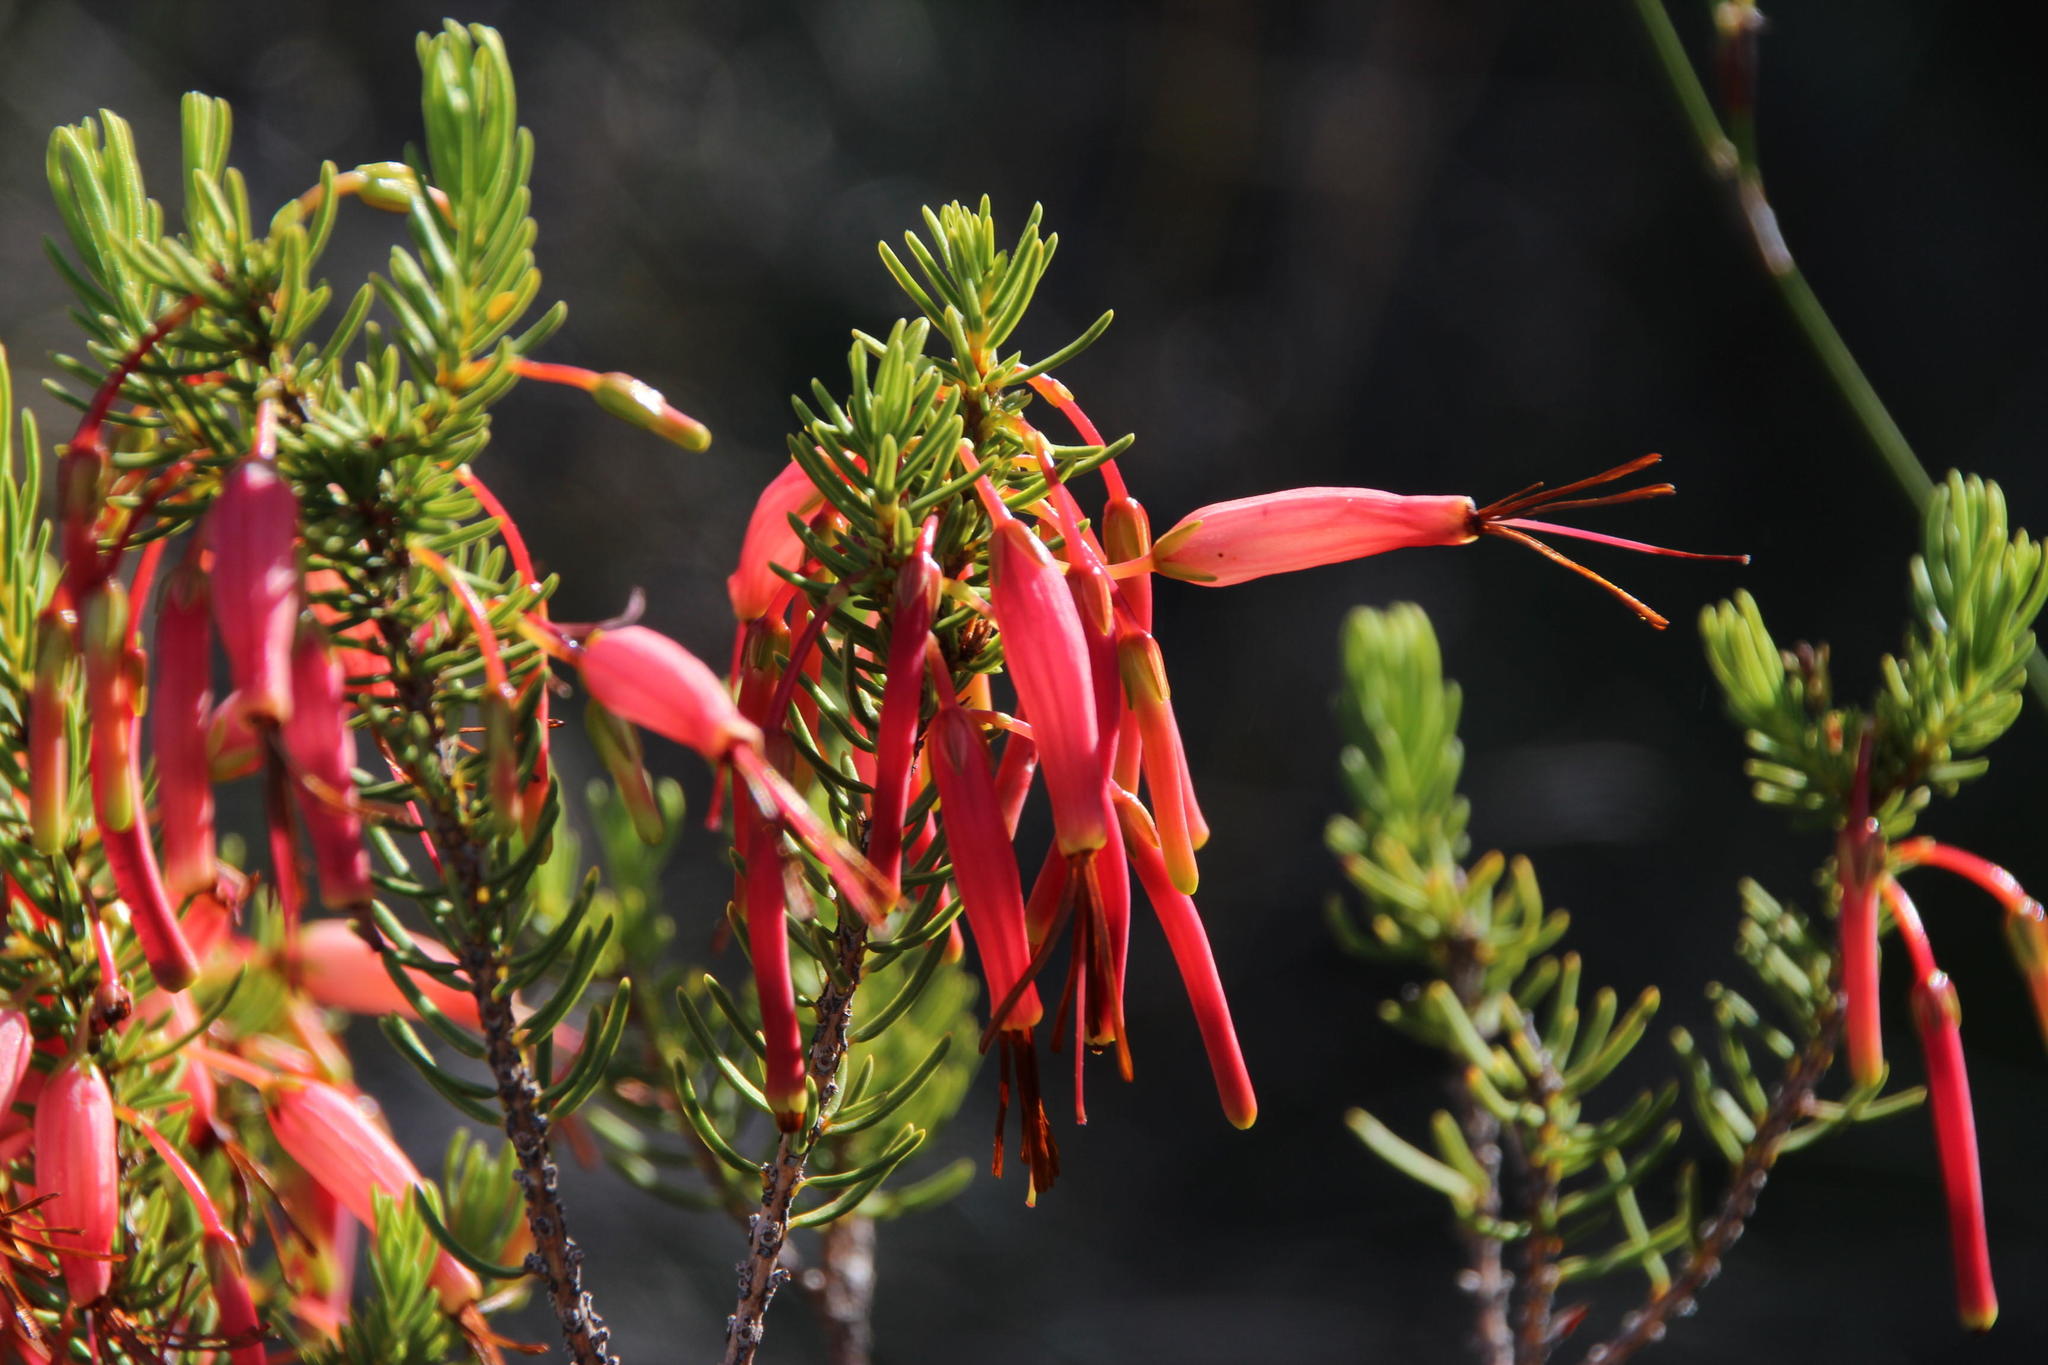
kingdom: Plantae
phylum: Tracheophyta
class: Magnoliopsida
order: Ericales
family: Ericaceae
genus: Erica
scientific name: Erica plukenetii
